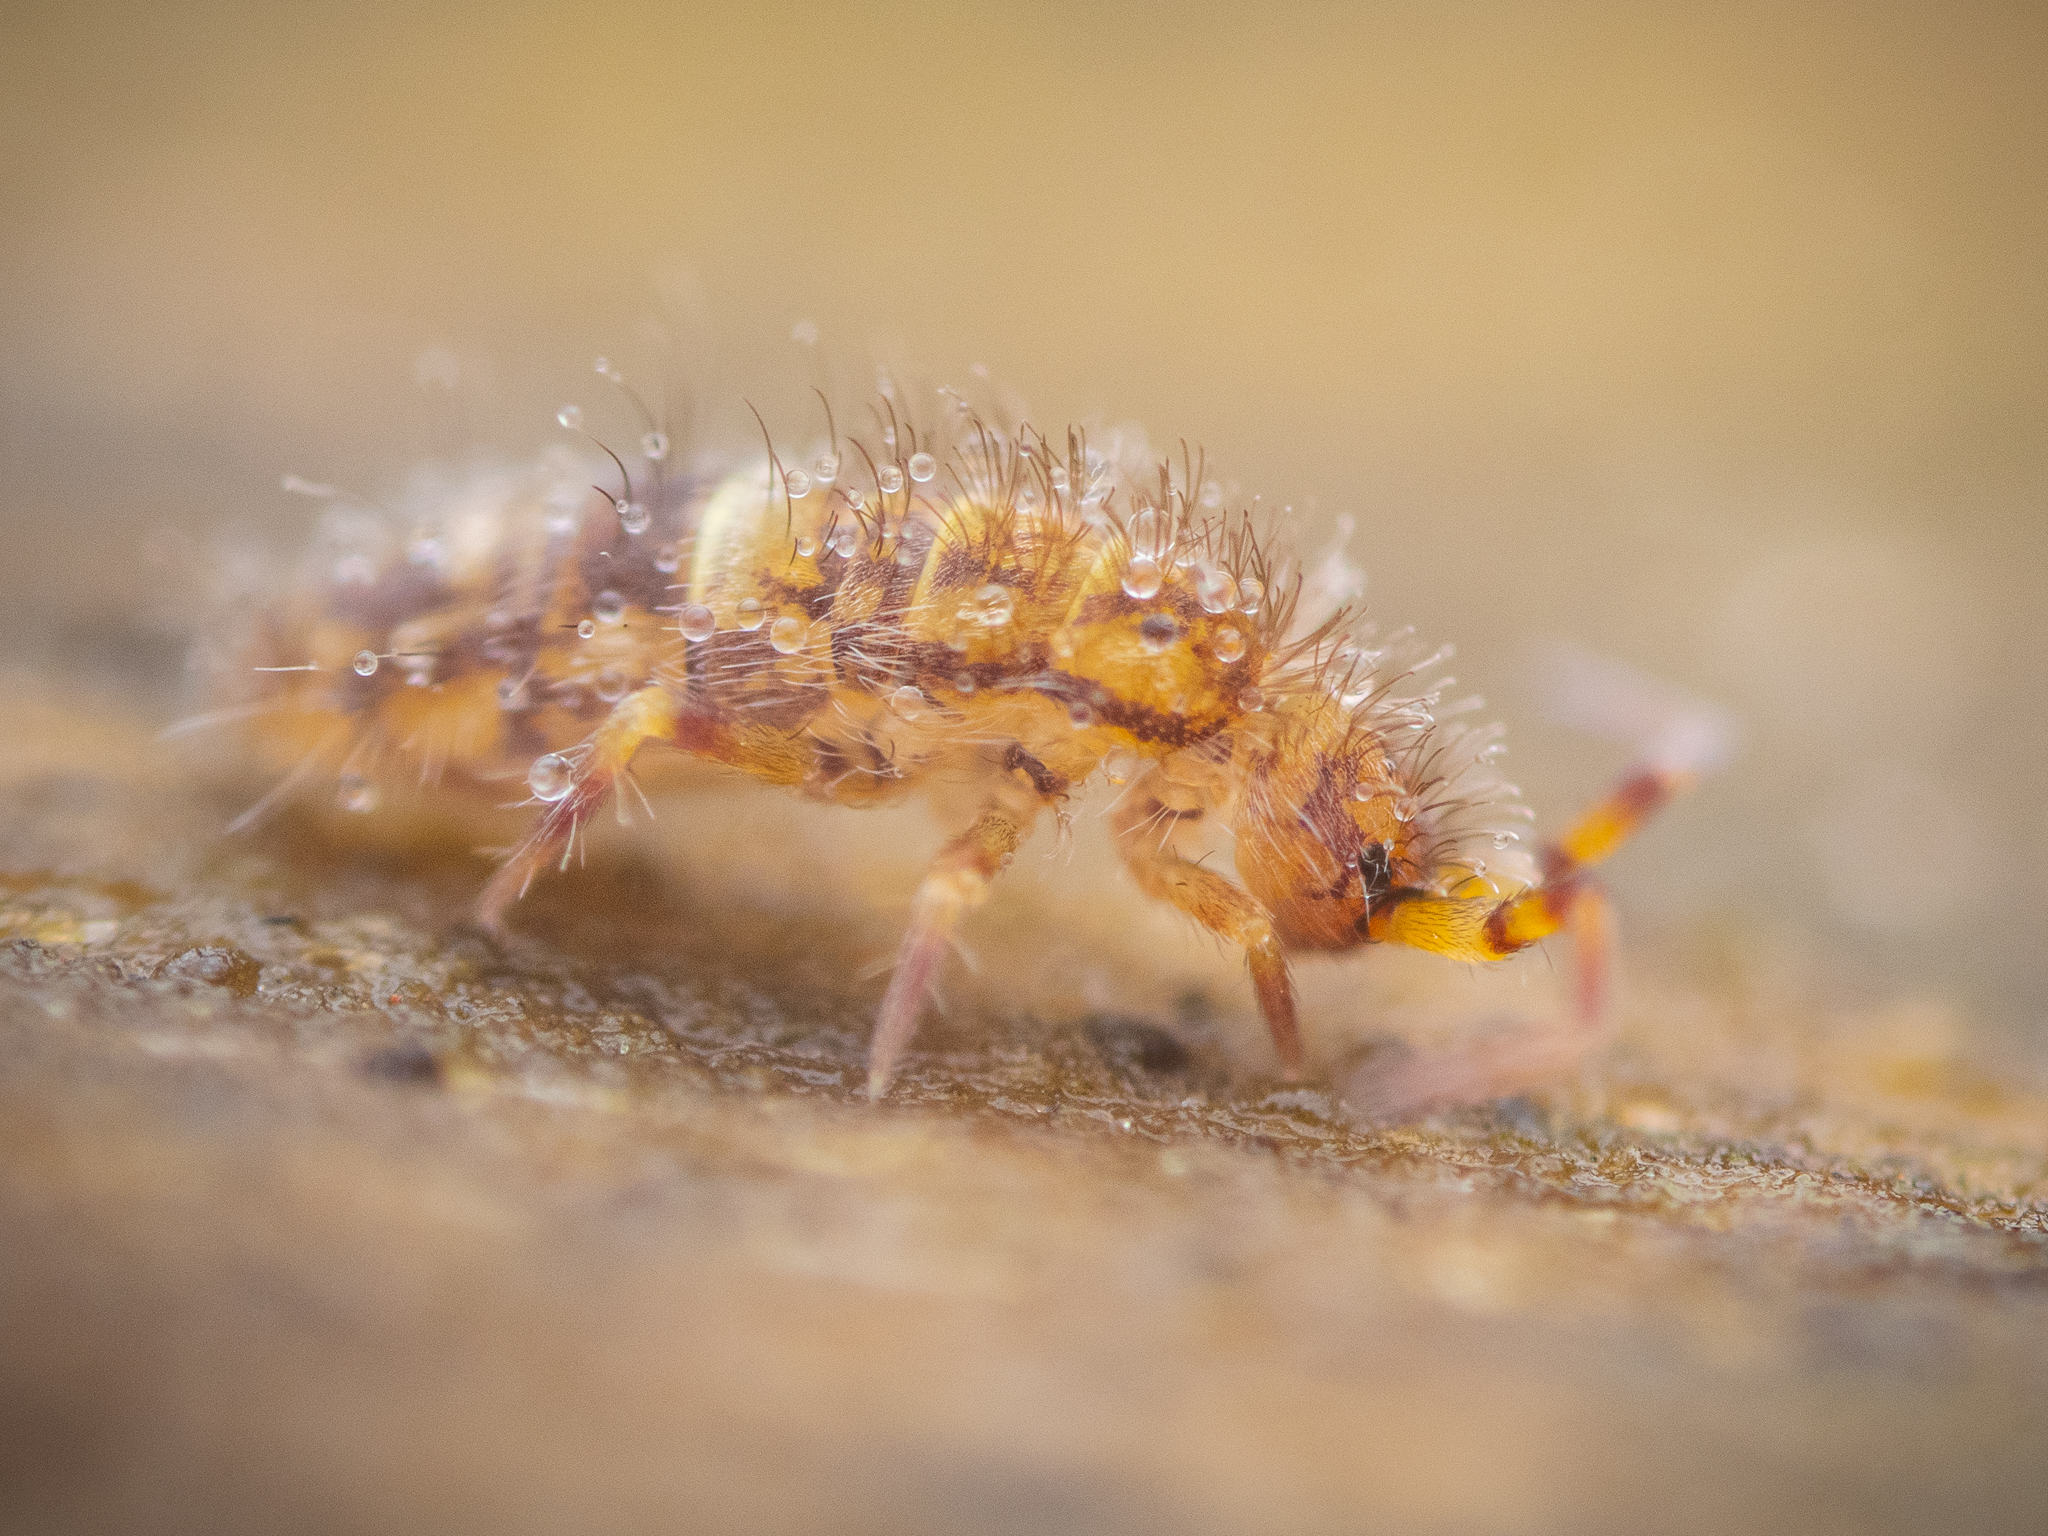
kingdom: Animalia
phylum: Arthropoda
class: Collembola
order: Entomobryomorpha
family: Orchesellidae
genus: Orchesella
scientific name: Orchesella cincta
